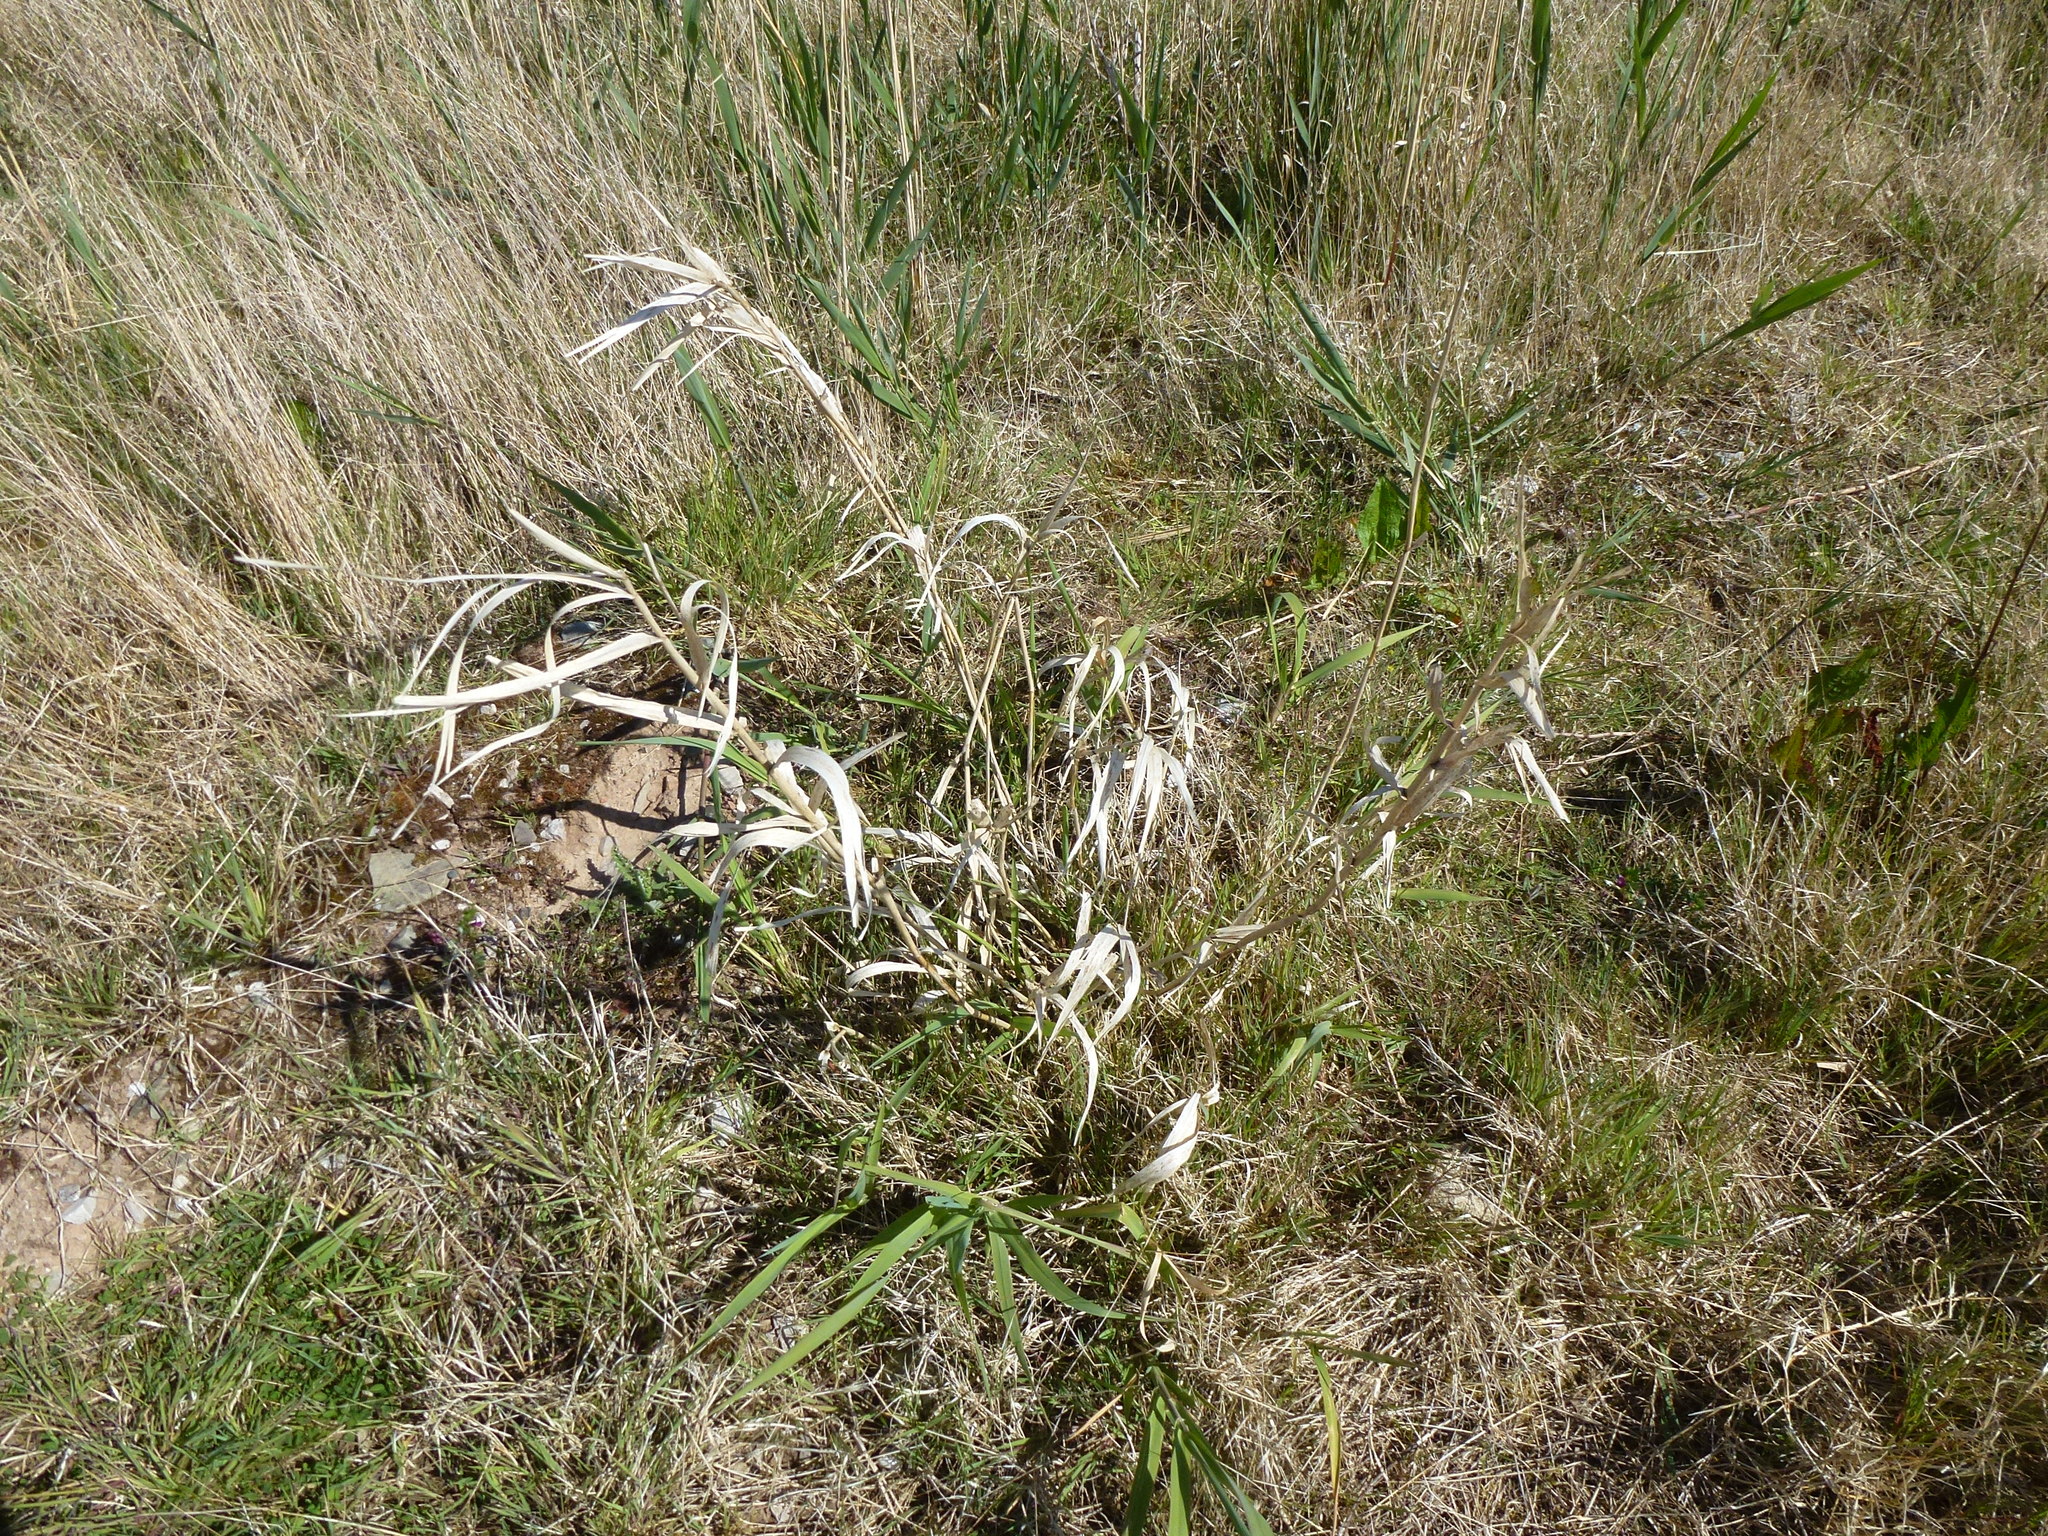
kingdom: Plantae
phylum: Tracheophyta
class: Liliopsida
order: Poales
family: Poaceae
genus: Phalaris
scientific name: Phalaris arundinacea
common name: Reed canary-grass
